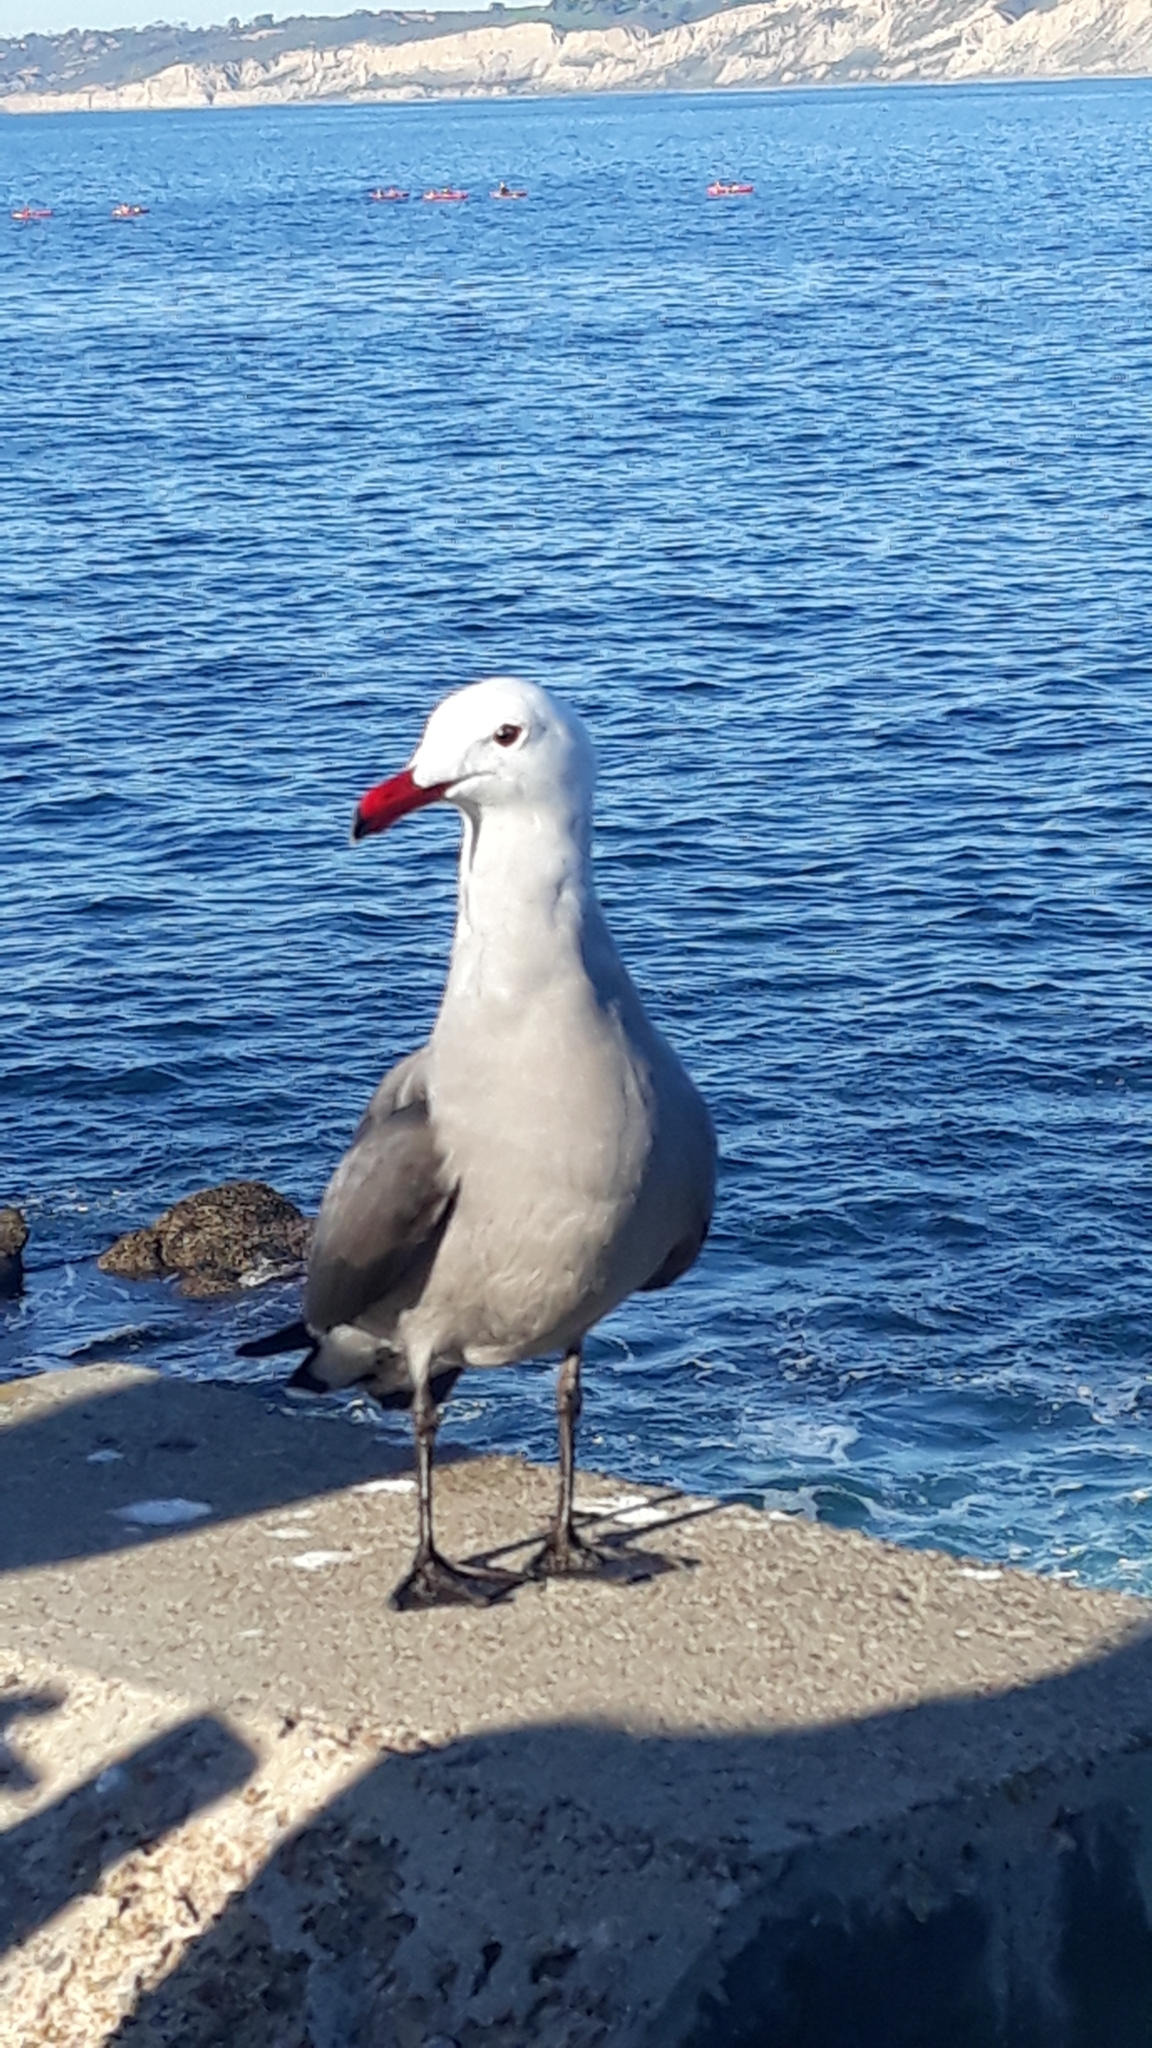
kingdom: Animalia
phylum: Chordata
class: Aves
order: Charadriiformes
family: Laridae
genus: Larus
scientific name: Larus heermanni
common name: Heermann's gull
